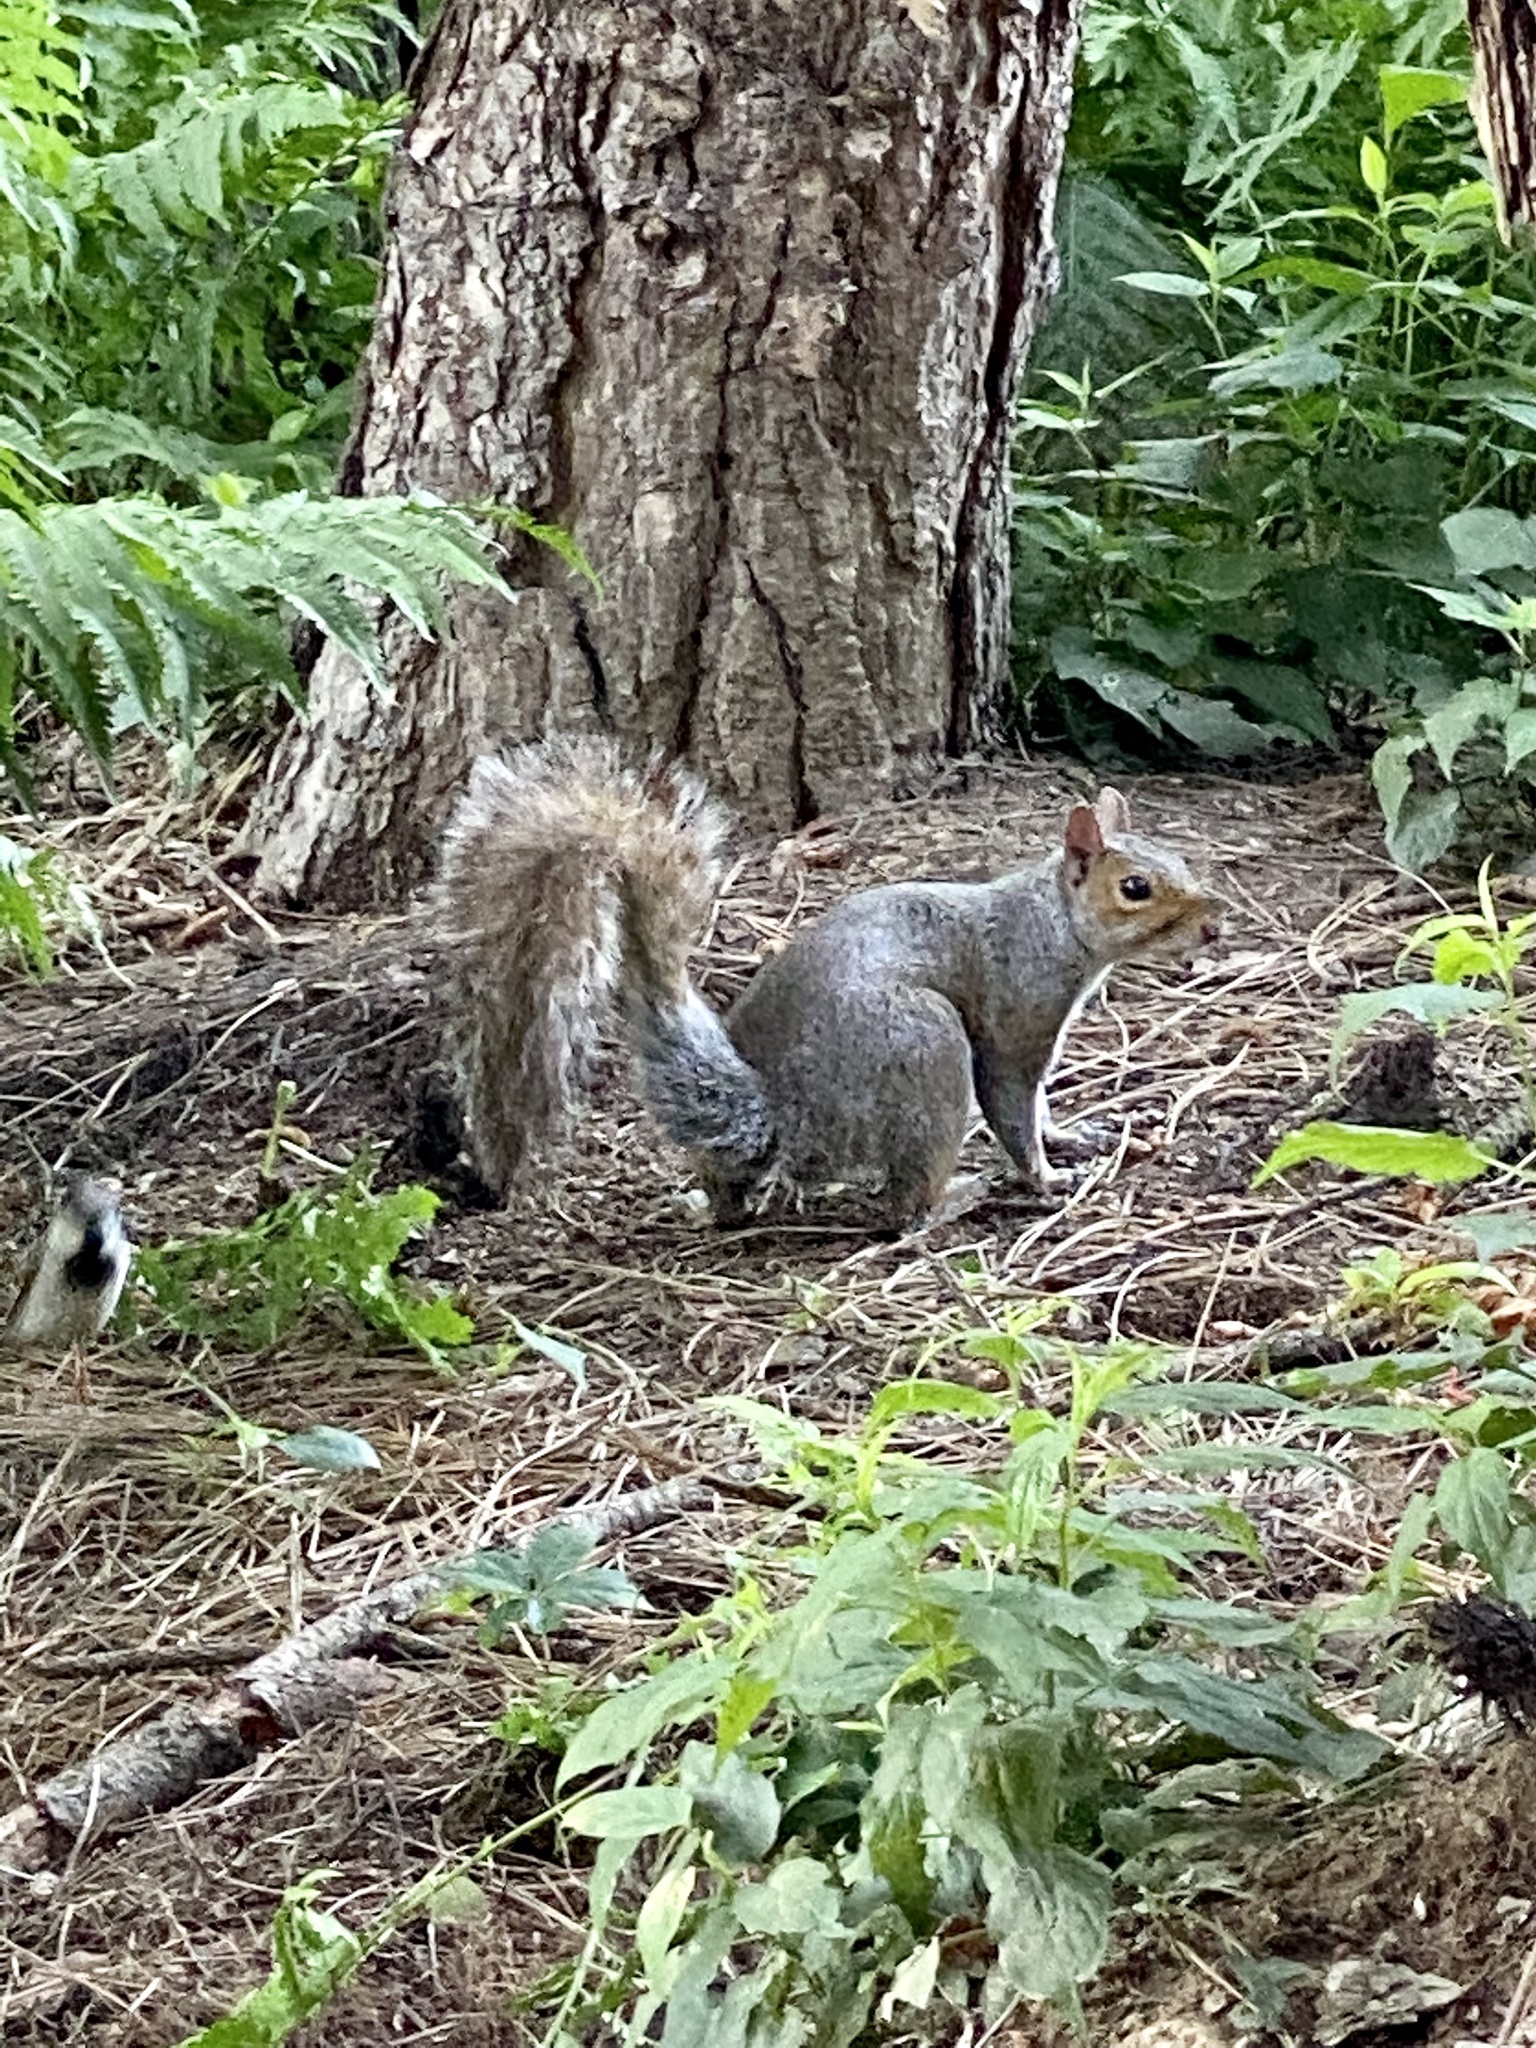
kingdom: Animalia
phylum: Chordata
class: Mammalia
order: Rodentia
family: Sciuridae
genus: Sciurus
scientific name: Sciurus carolinensis
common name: Eastern gray squirrel
